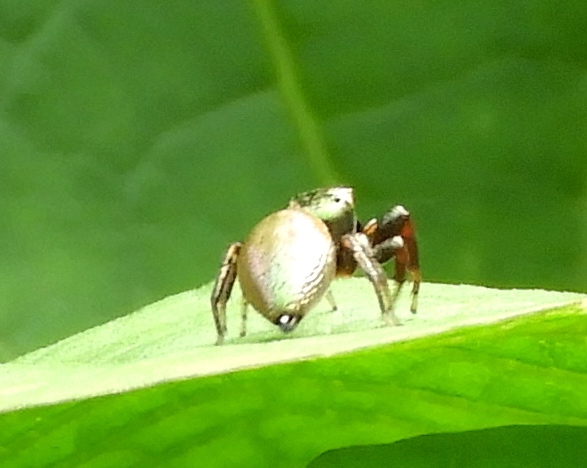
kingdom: Animalia
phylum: Arthropoda
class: Arachnida
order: Araneae
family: Salticidae
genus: Sassacus
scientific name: Sassacus
